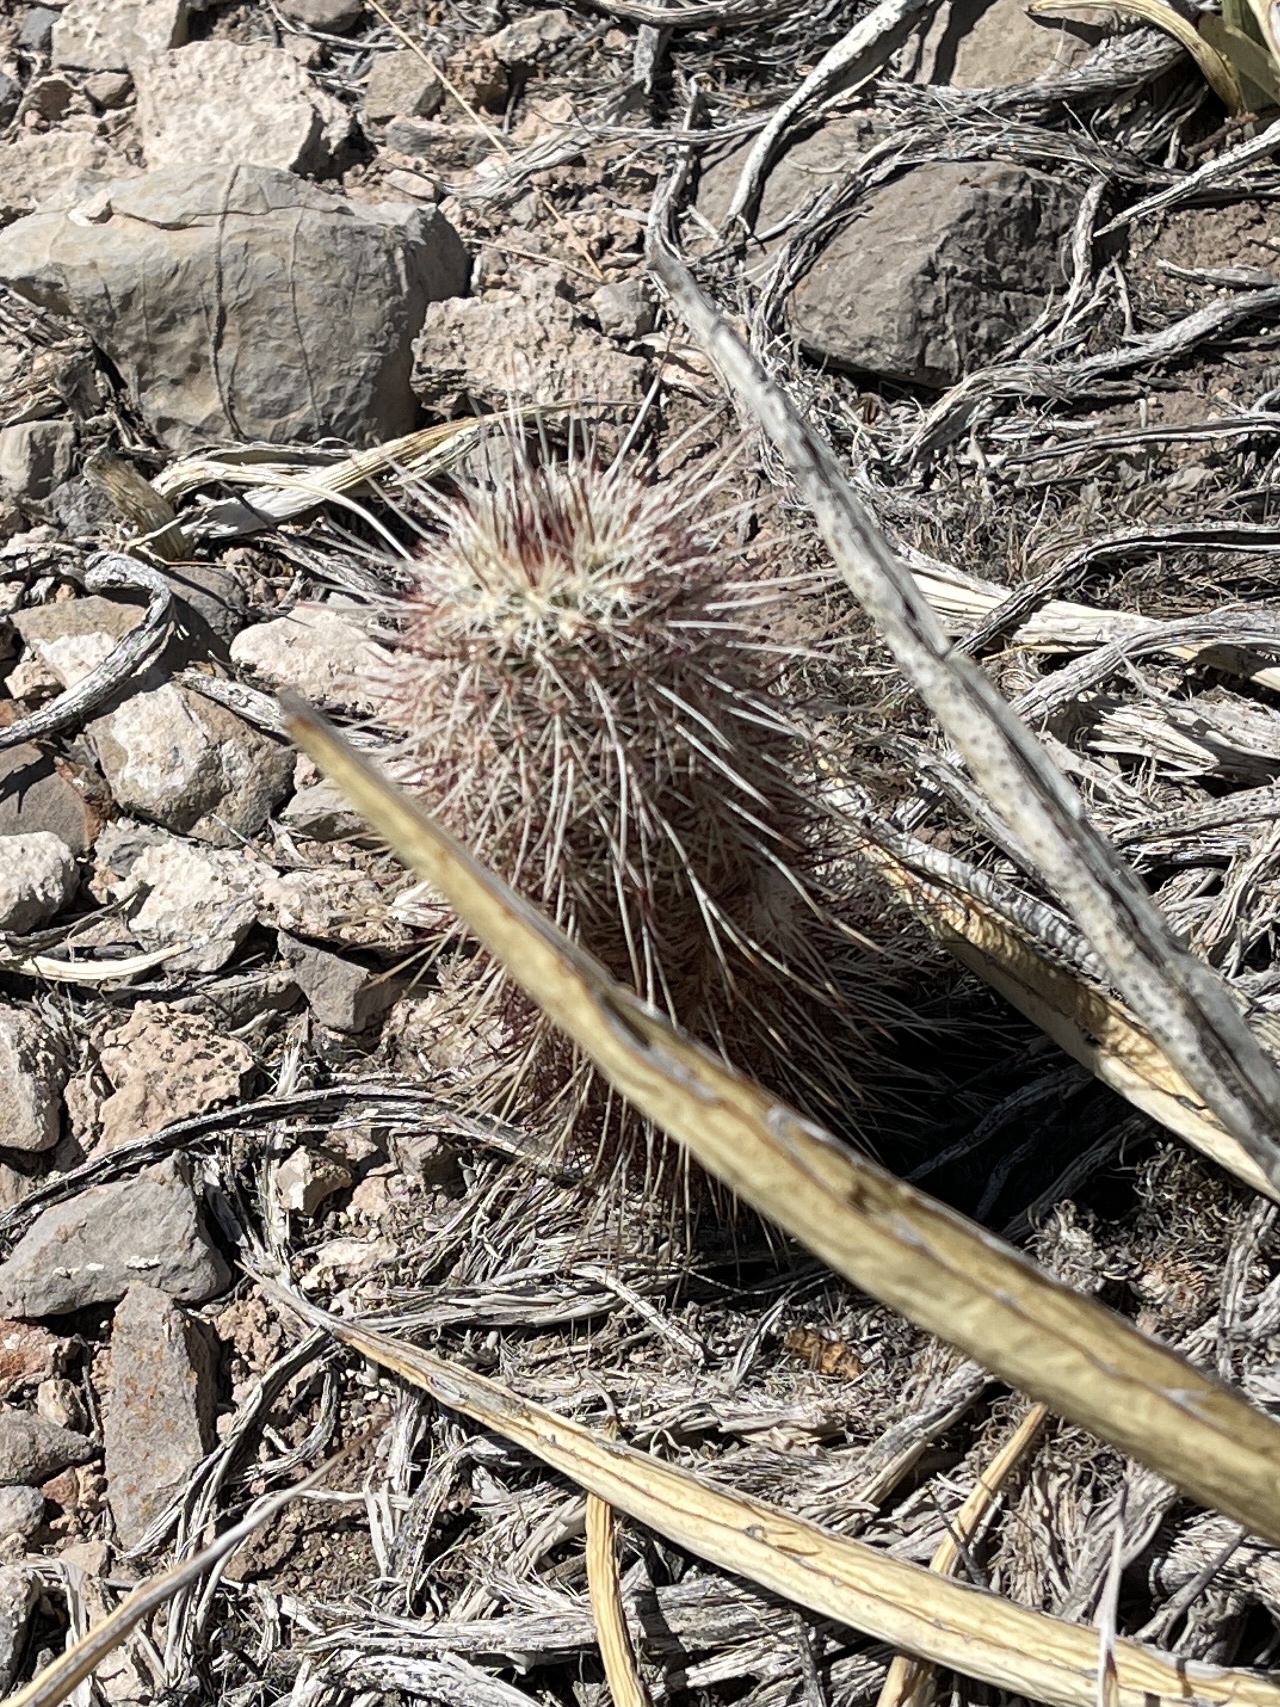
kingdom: Plantae
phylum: Tracheophyta
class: Magnoliopsida
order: Caryophyllales
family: Cactaceae
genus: Echinocereus
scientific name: Echinocereus viridiflorus
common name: Nylon hedgehog cactus
